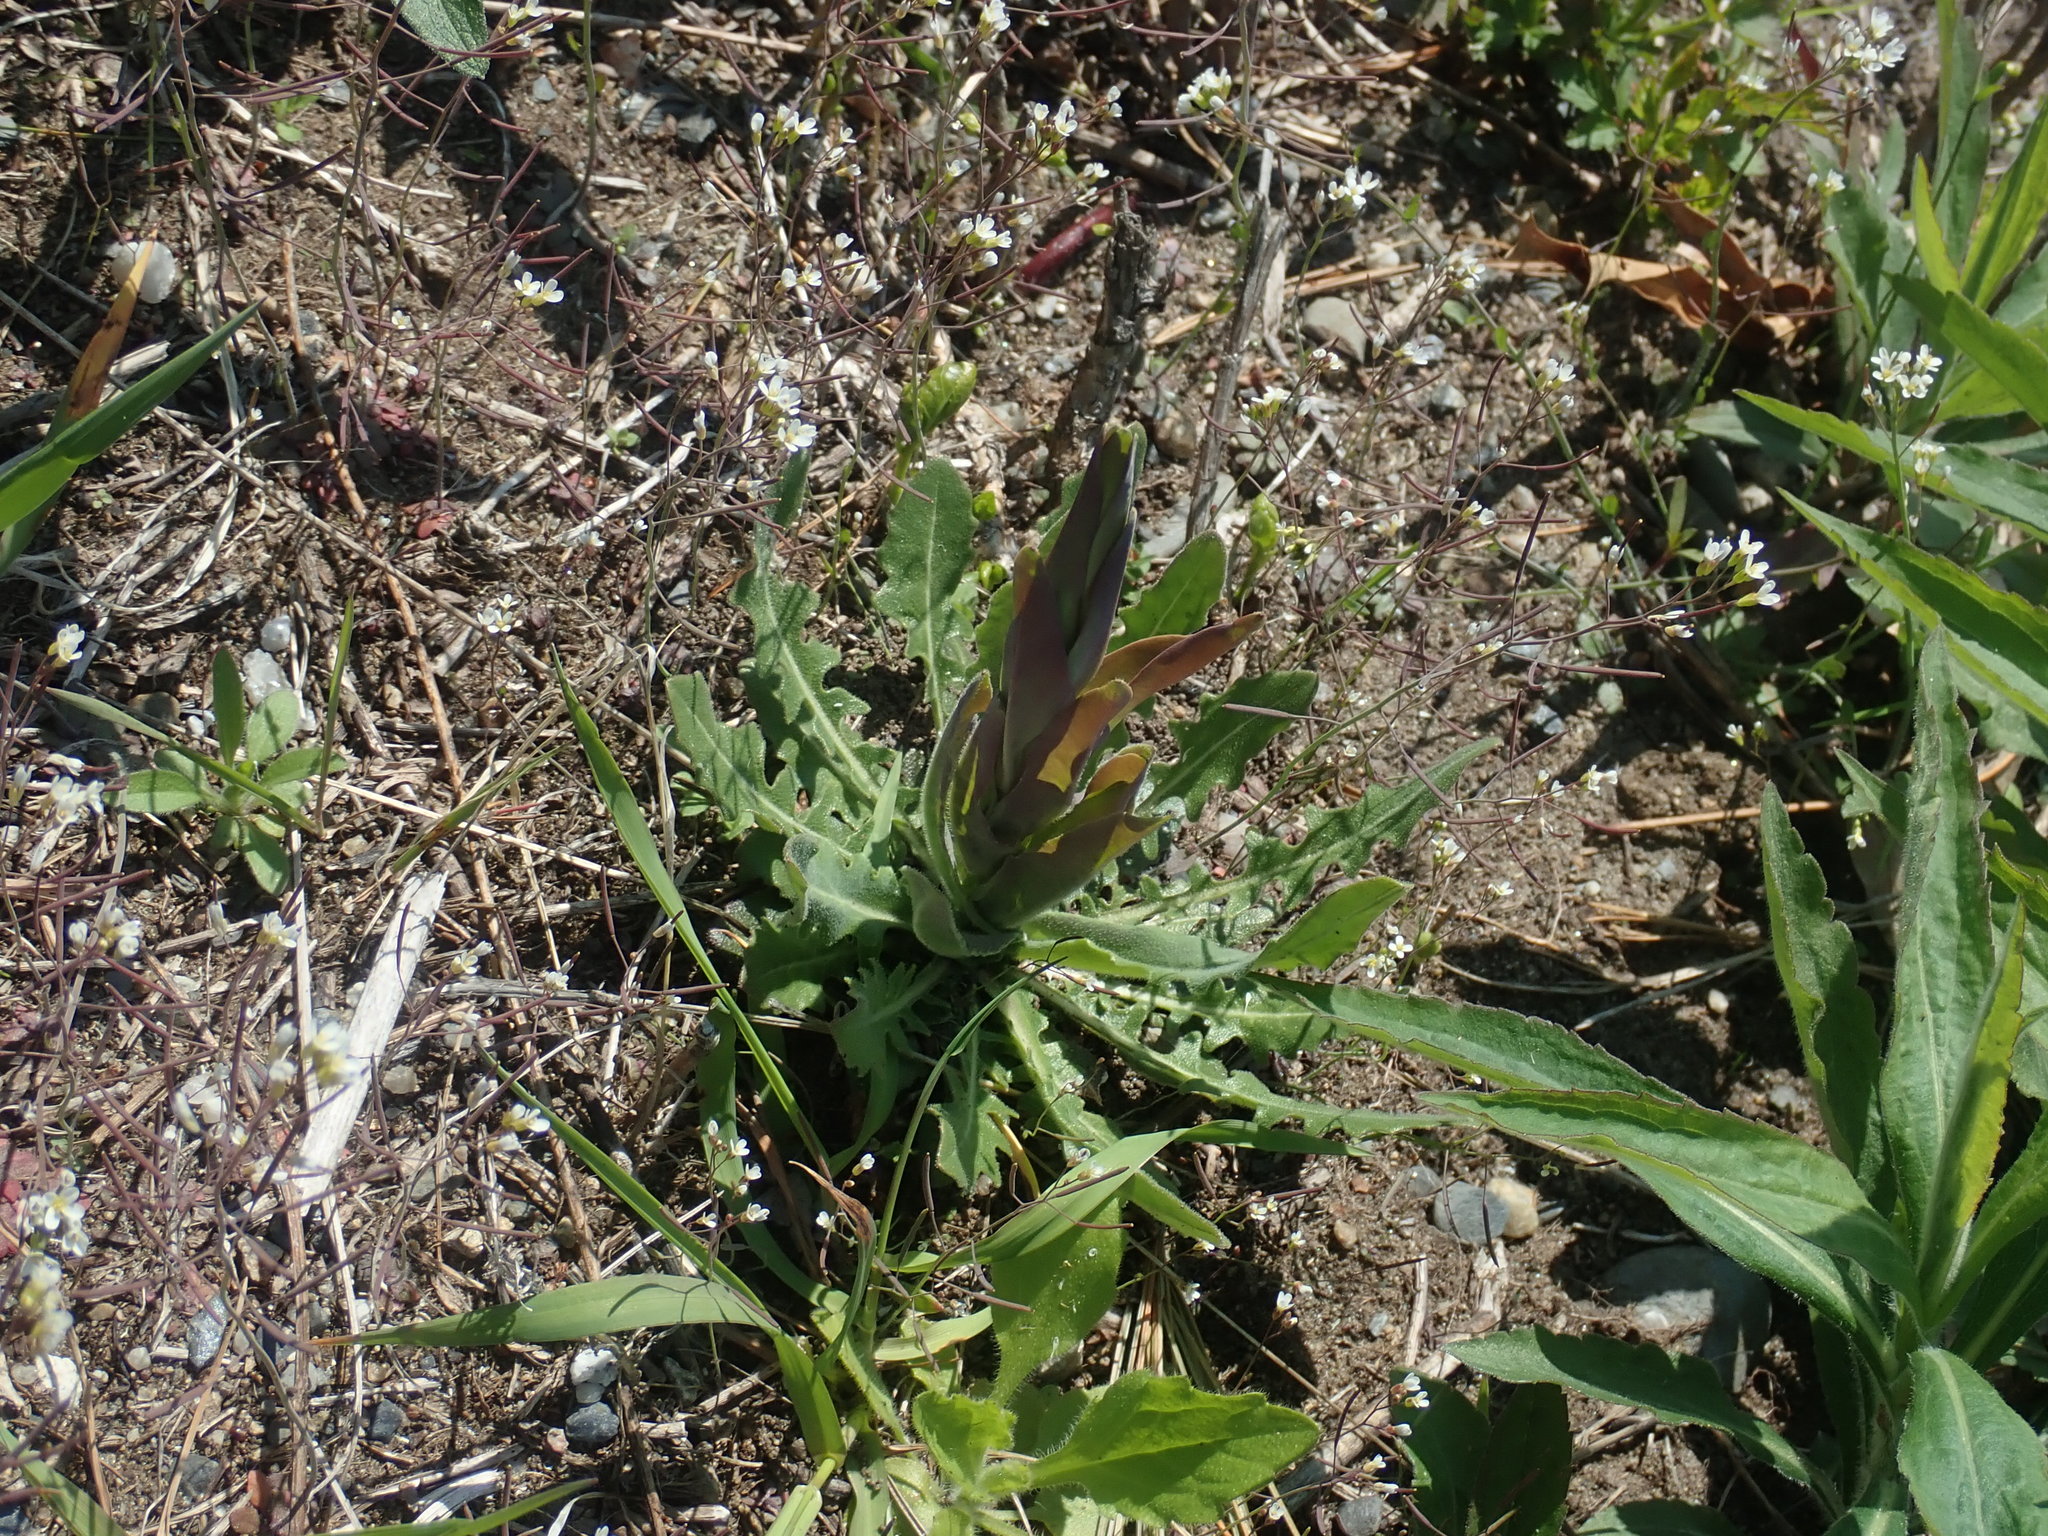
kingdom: Plantae
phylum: Tracheophyta
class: Magnoliopsida
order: Brassicales
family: Brassicaceae
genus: Turritis
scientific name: Turritis glabra
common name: Tower rockcress
